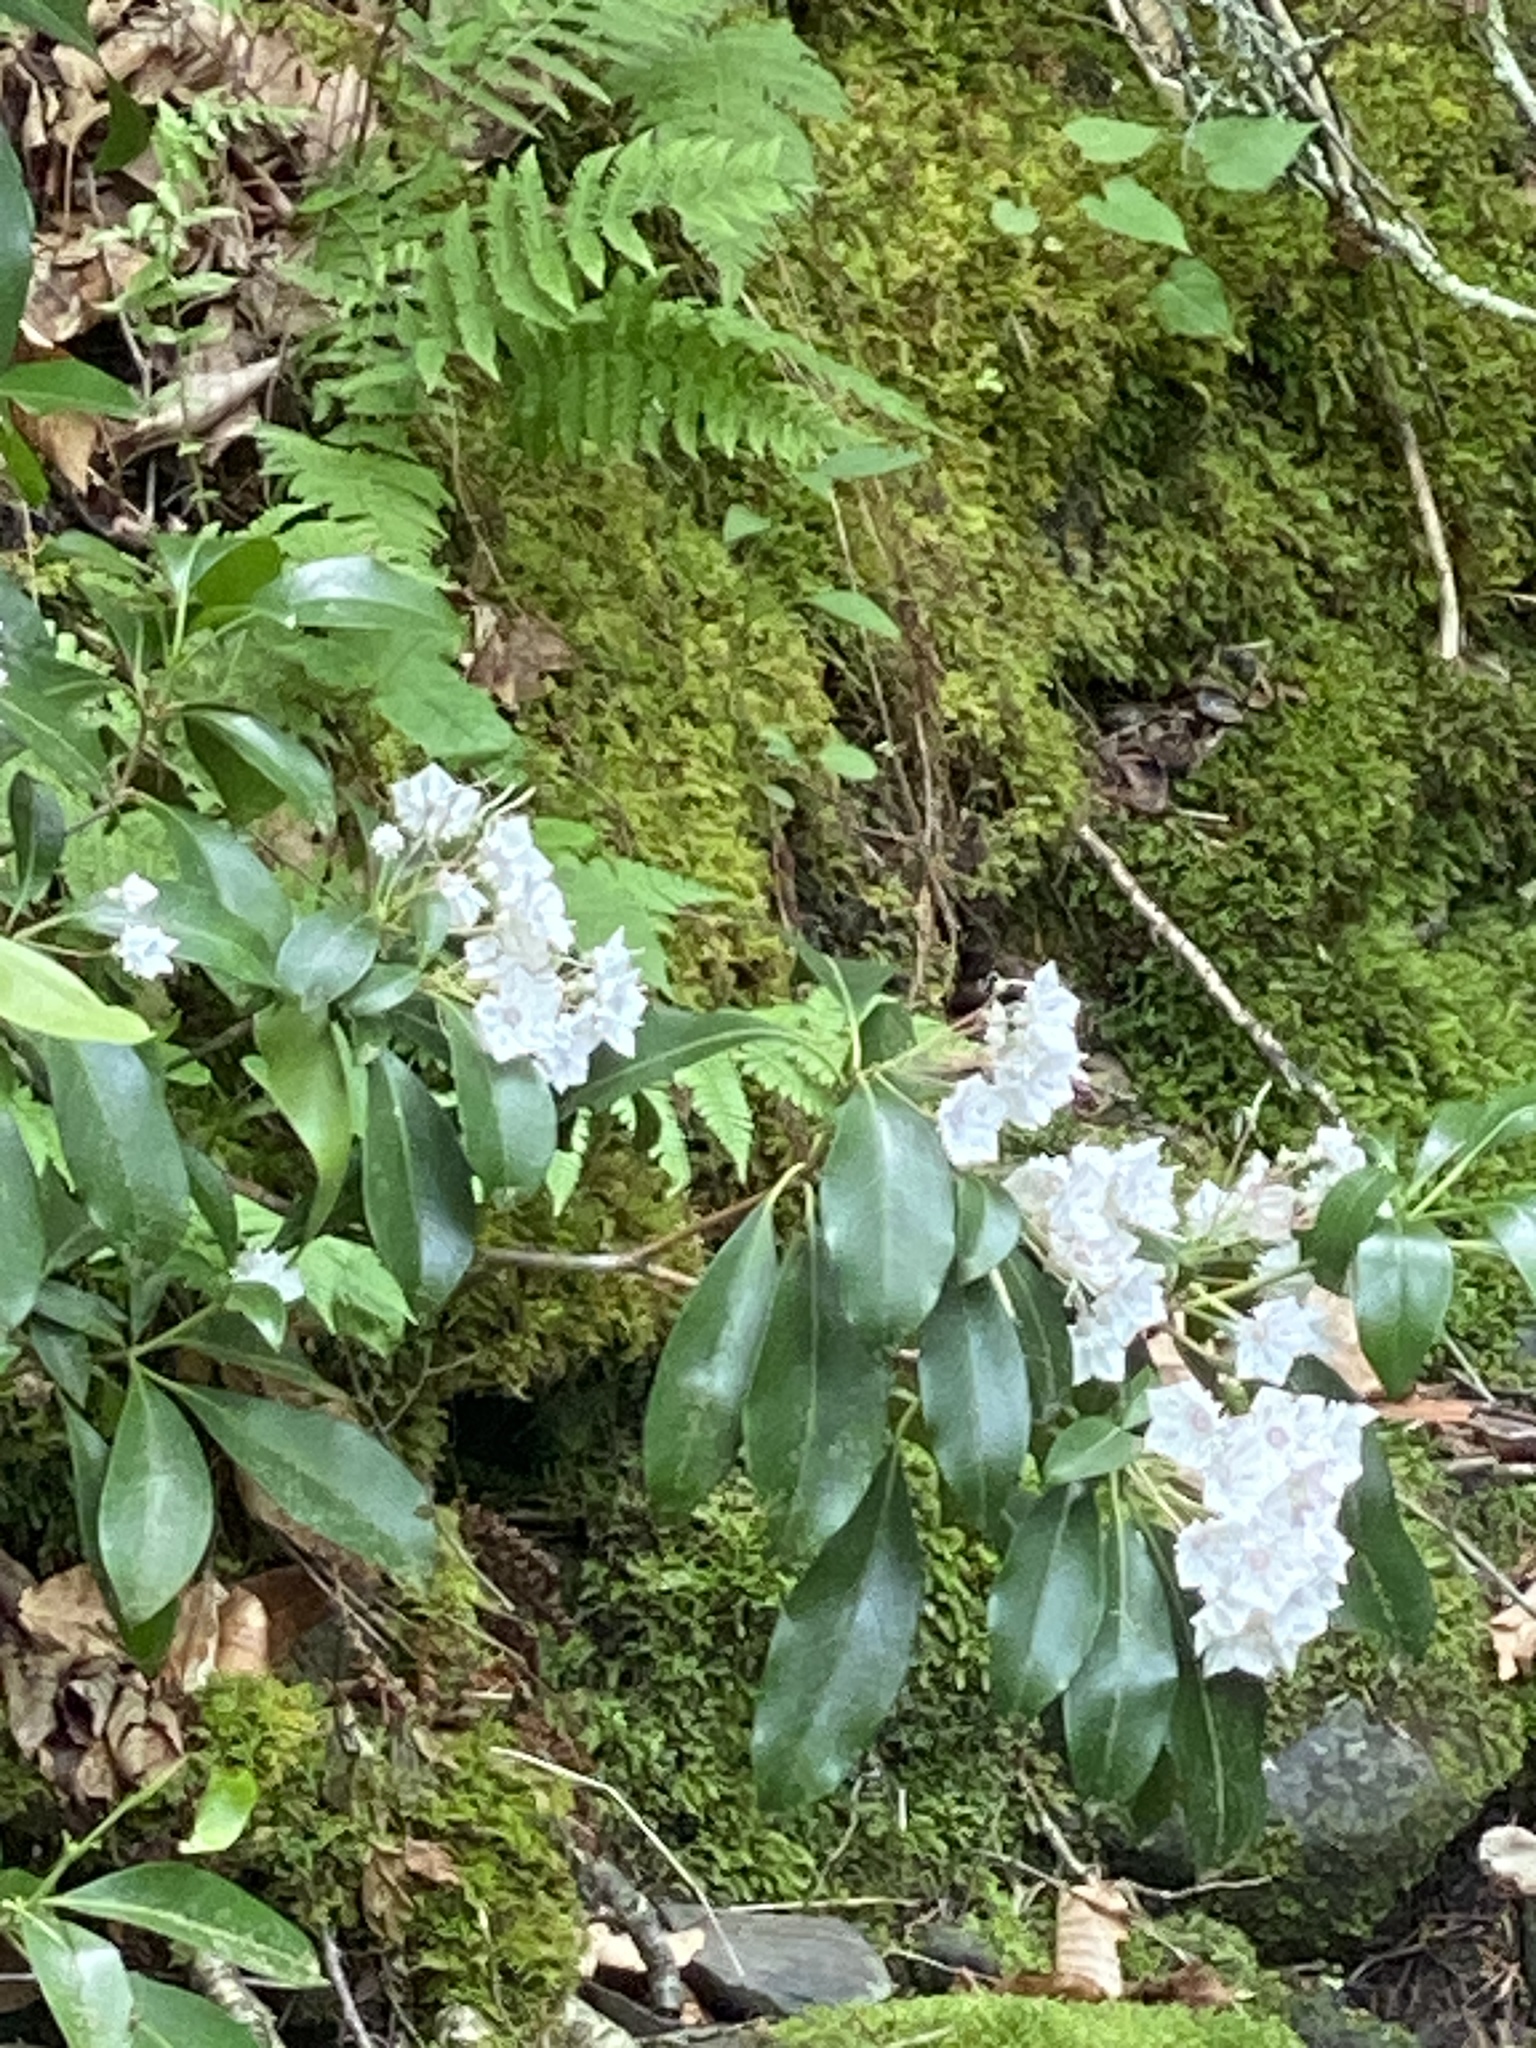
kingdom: Plantae
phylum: Tracheophyta
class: Magnoliopsida
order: Ericales
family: Ericaceae
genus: Kalmia
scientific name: Kalmia latifolia
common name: Mountain-laurel
